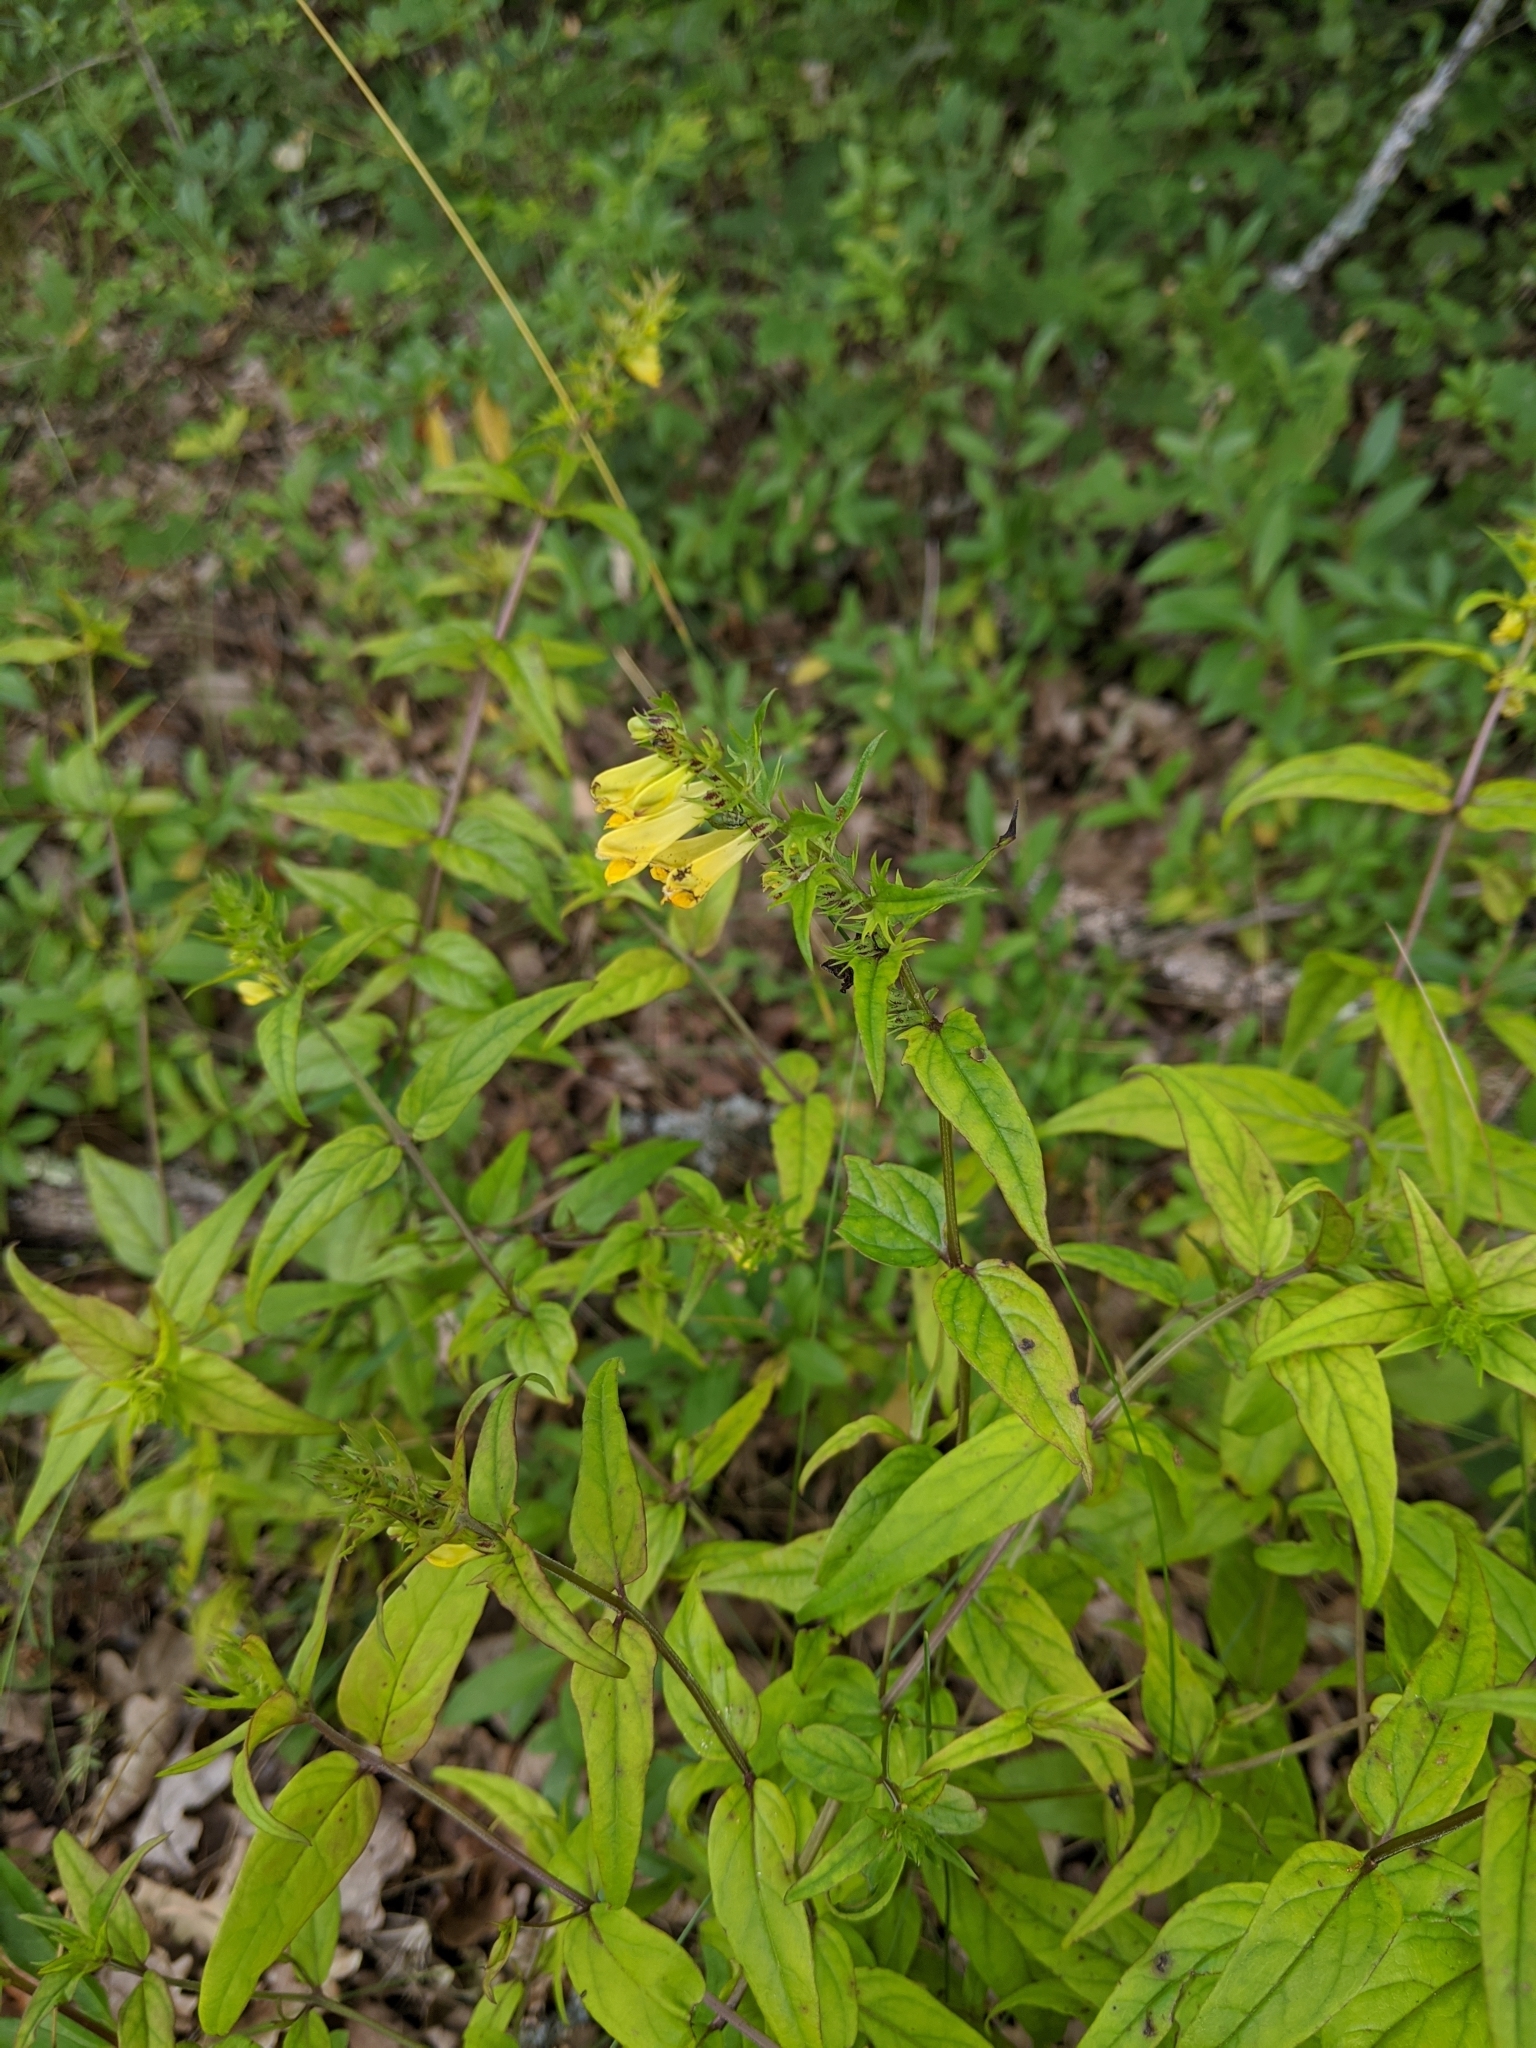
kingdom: Plantae
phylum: Tracheophyta
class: Magnoliopsida
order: Lamiales
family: Orobanchaceae
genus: Melampyrum
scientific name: Melampyrum pratense
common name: Common cow-wheat
